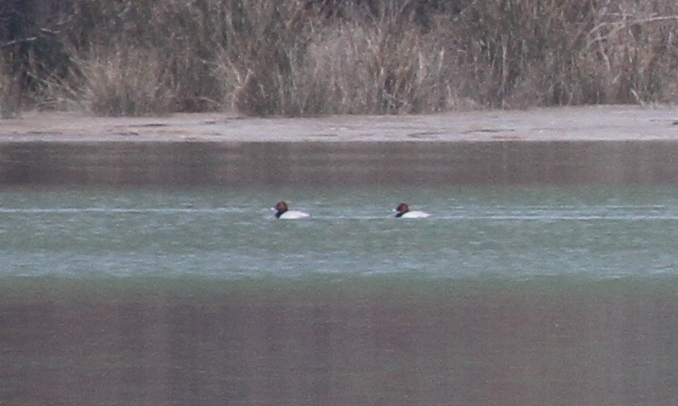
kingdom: Animalia
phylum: Chordata
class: Aves
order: Anseriformes
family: Anatidae
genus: Aythya
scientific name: Aythya ferina
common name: Common pochard
